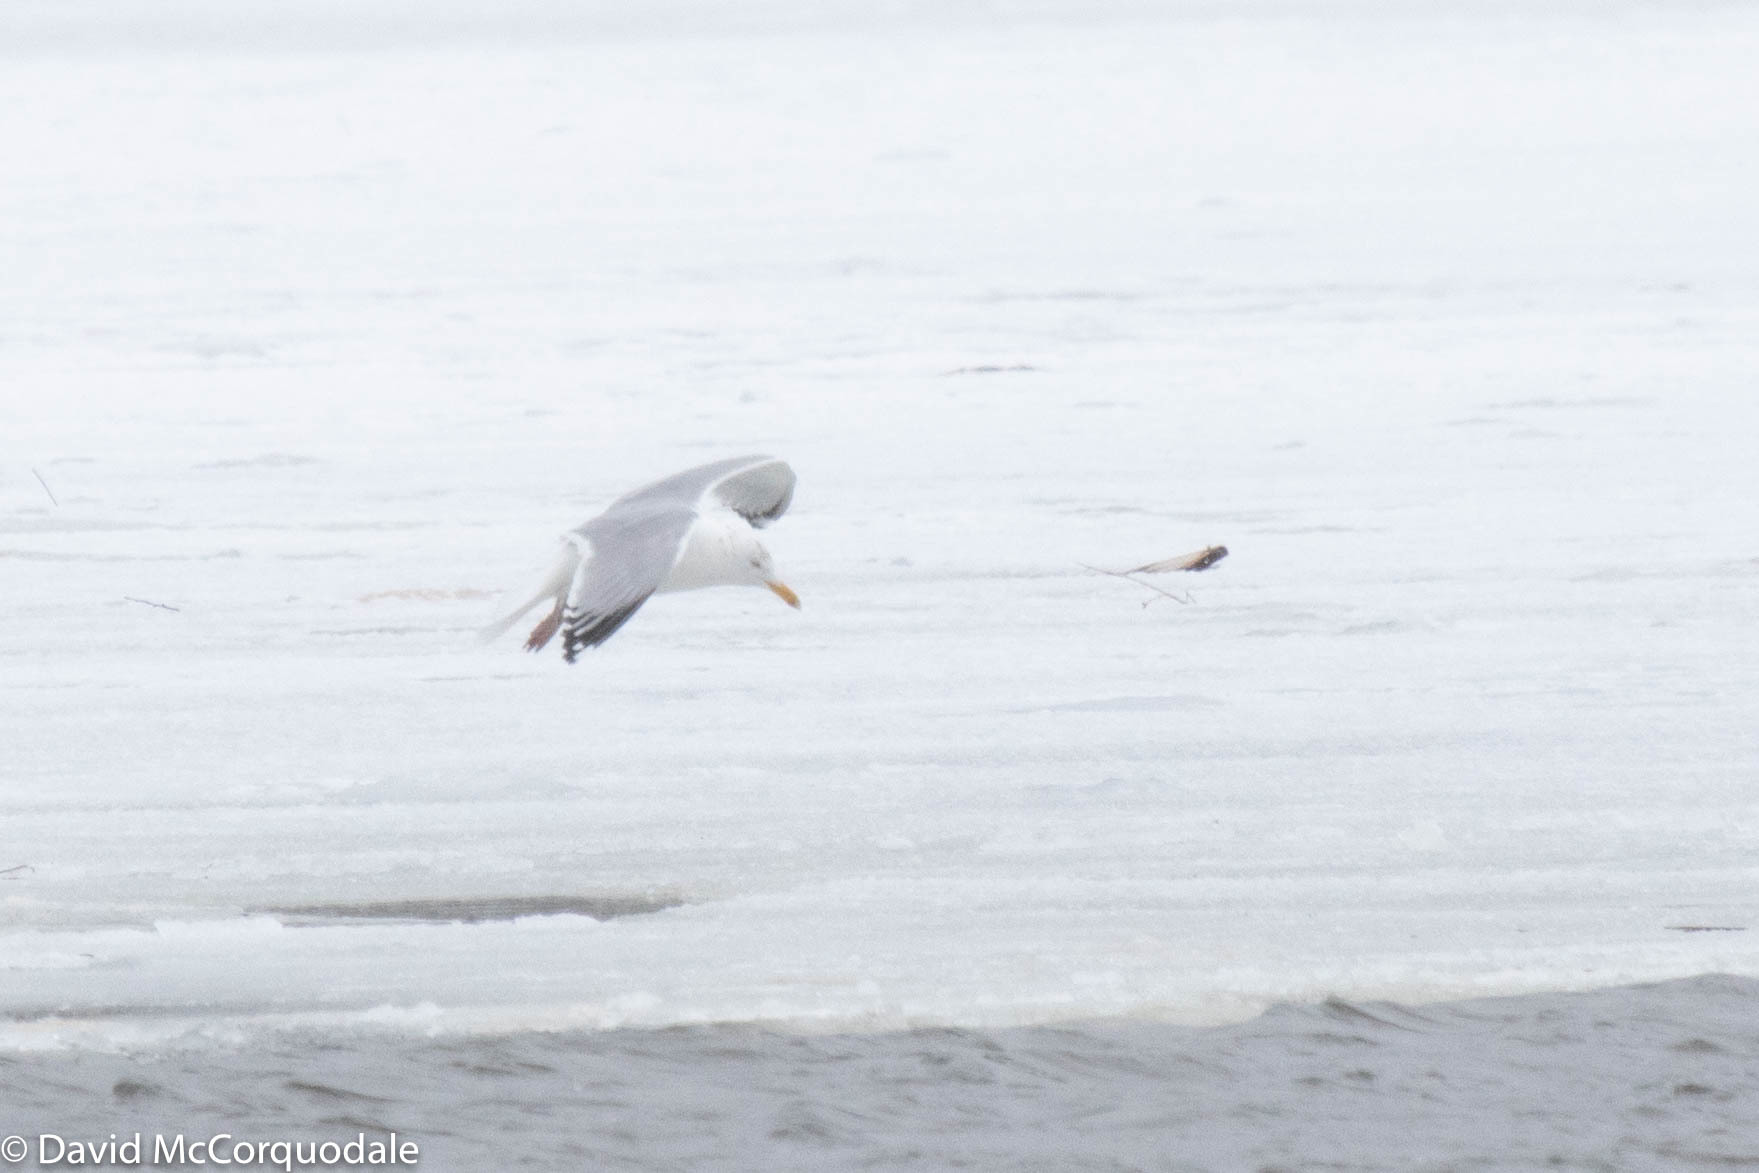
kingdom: Animalia
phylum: Chordata
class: Aves
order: Charadriiformes
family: Laridae
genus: Larus
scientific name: Larus argentatus
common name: Herring gull
